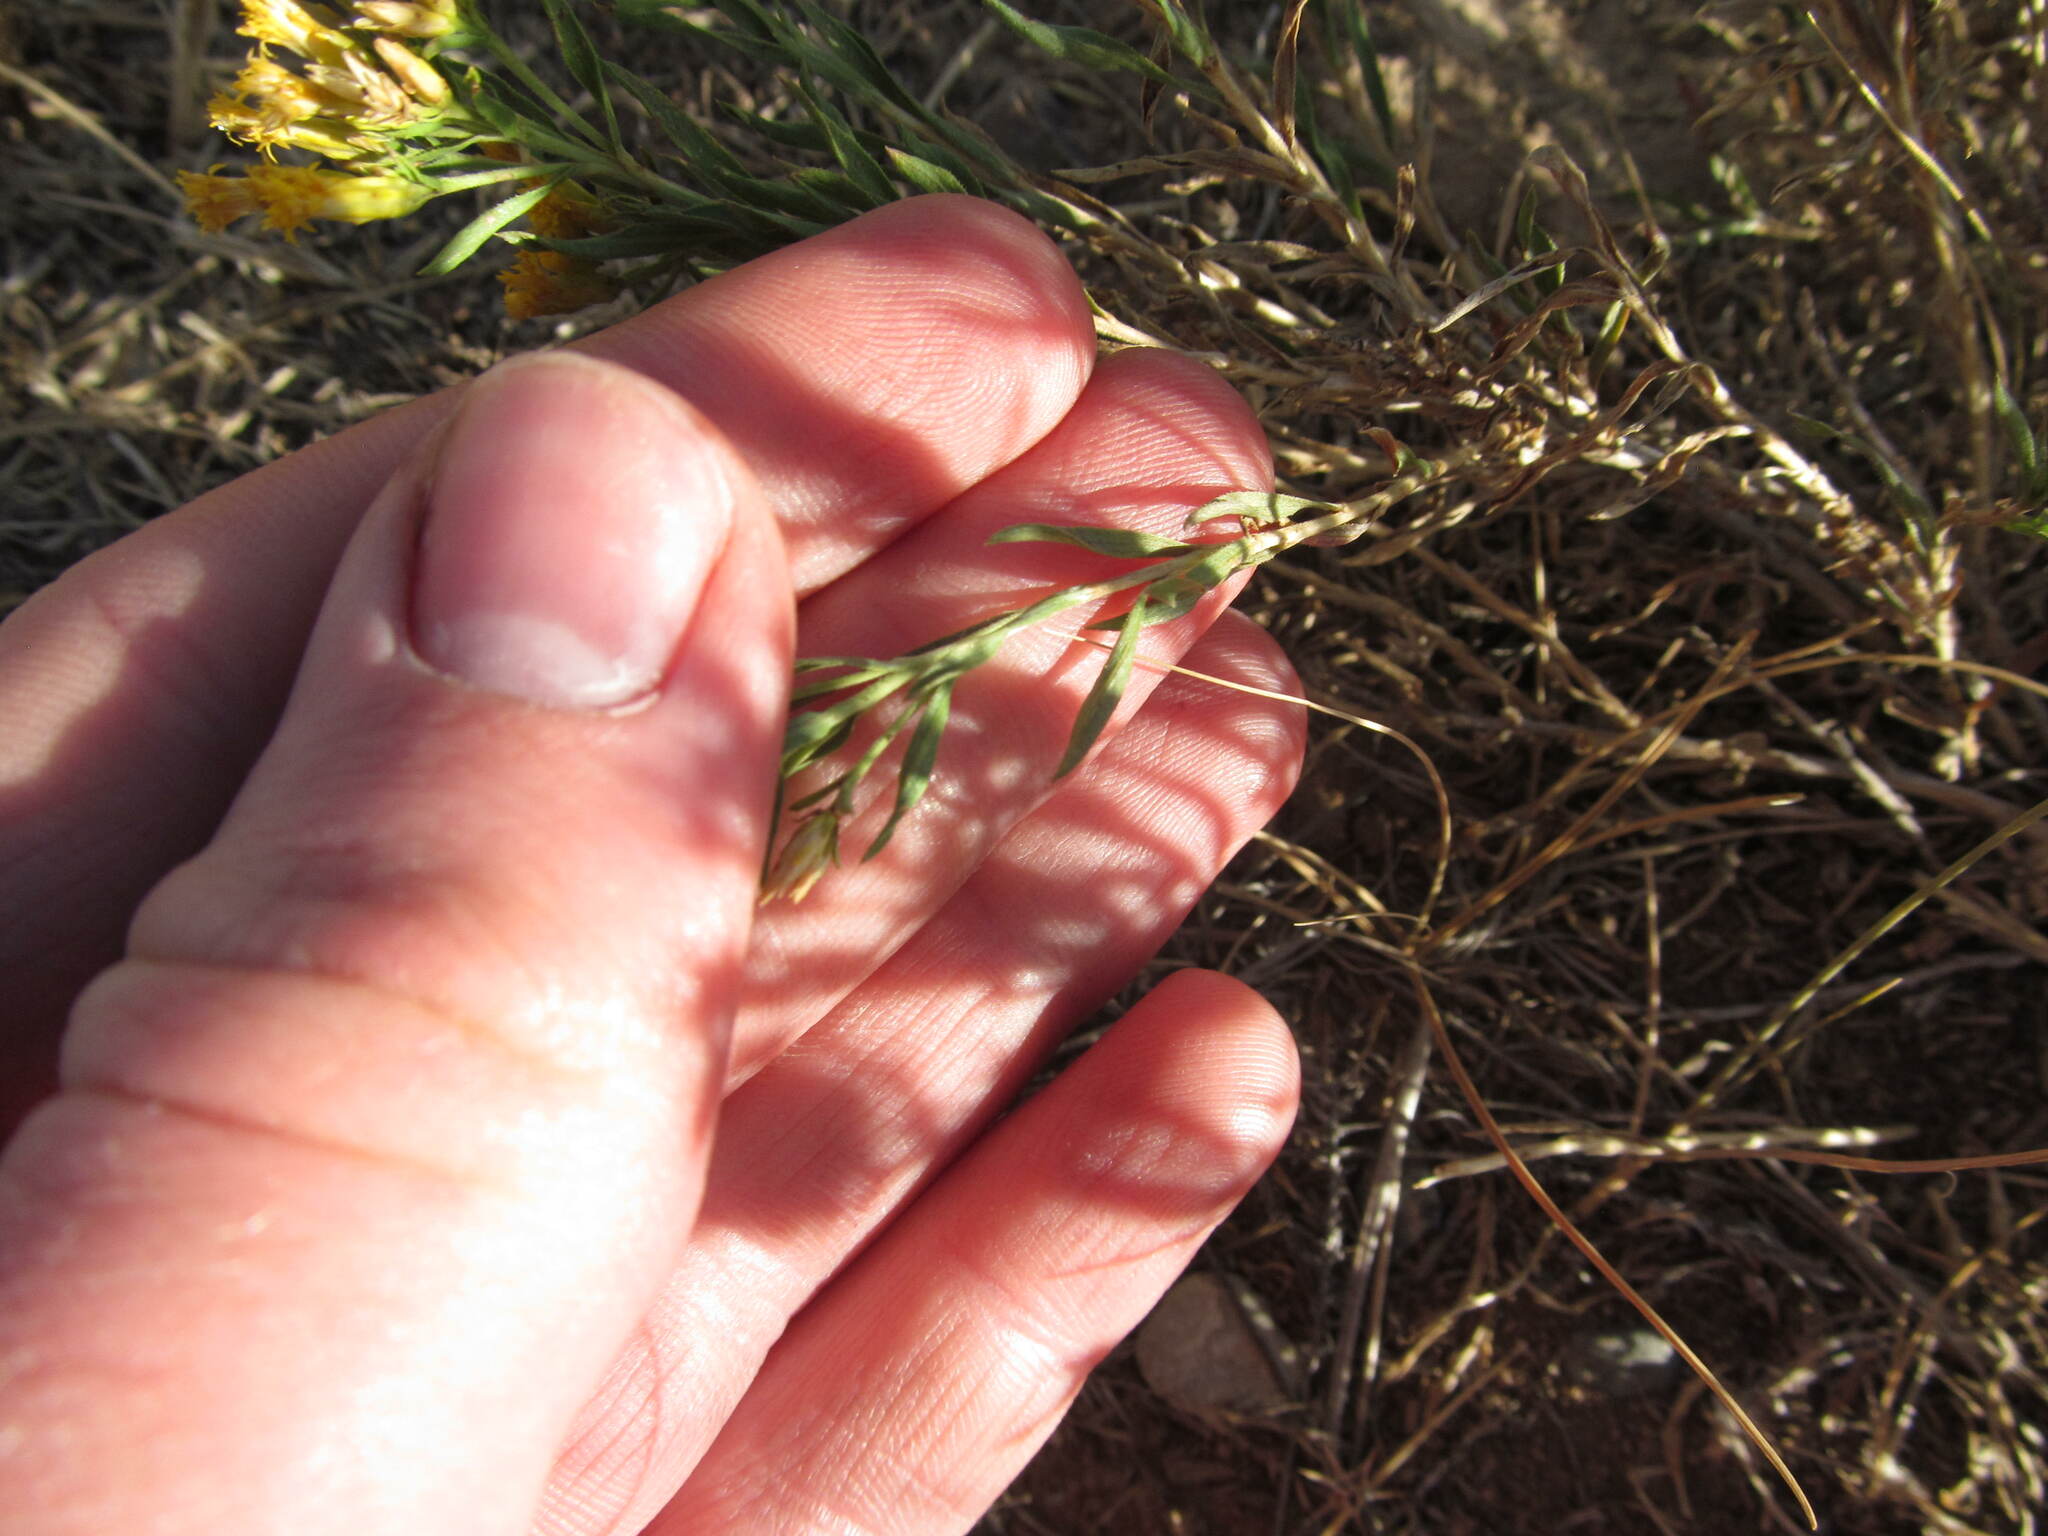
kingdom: Plantae
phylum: Tracheophyta
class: Magnoliopsida
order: Asterales
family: Asteraceae
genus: Chrysothamnus
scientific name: Chrysothamnus viscidiflorus
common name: Yellow rabbitbrush
